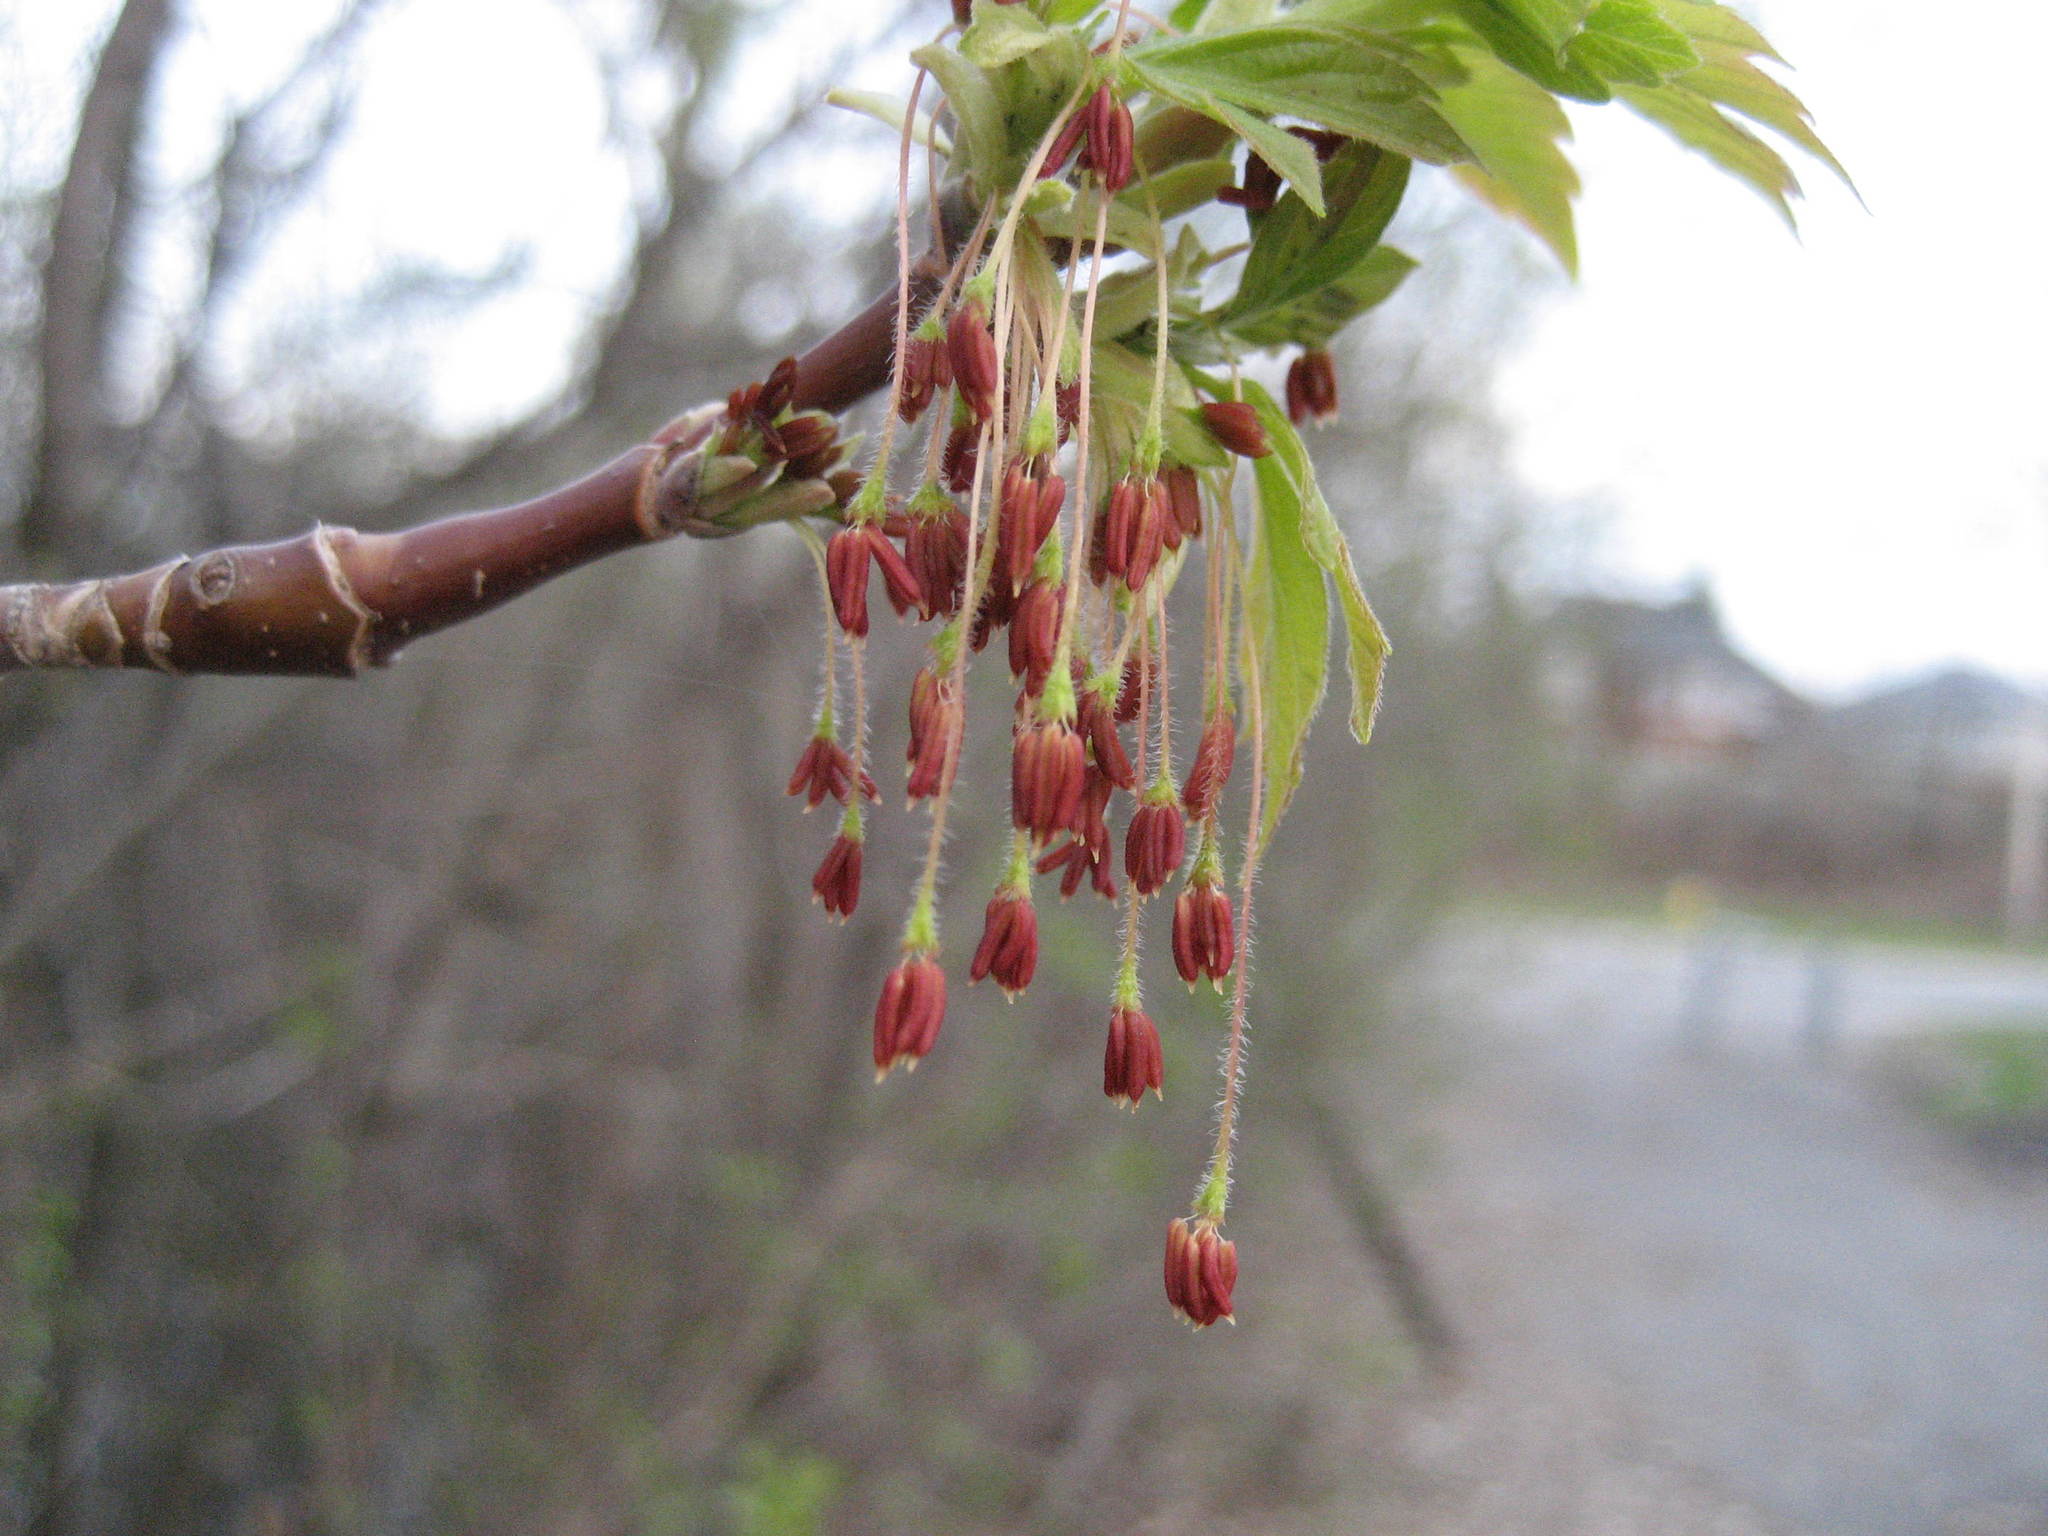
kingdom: Plantae
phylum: Tracheophyta
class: Magnoliopsida
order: Sapindales
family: Sapindaceae
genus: Acer
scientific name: Acer negundo
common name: Ashleaf maple
